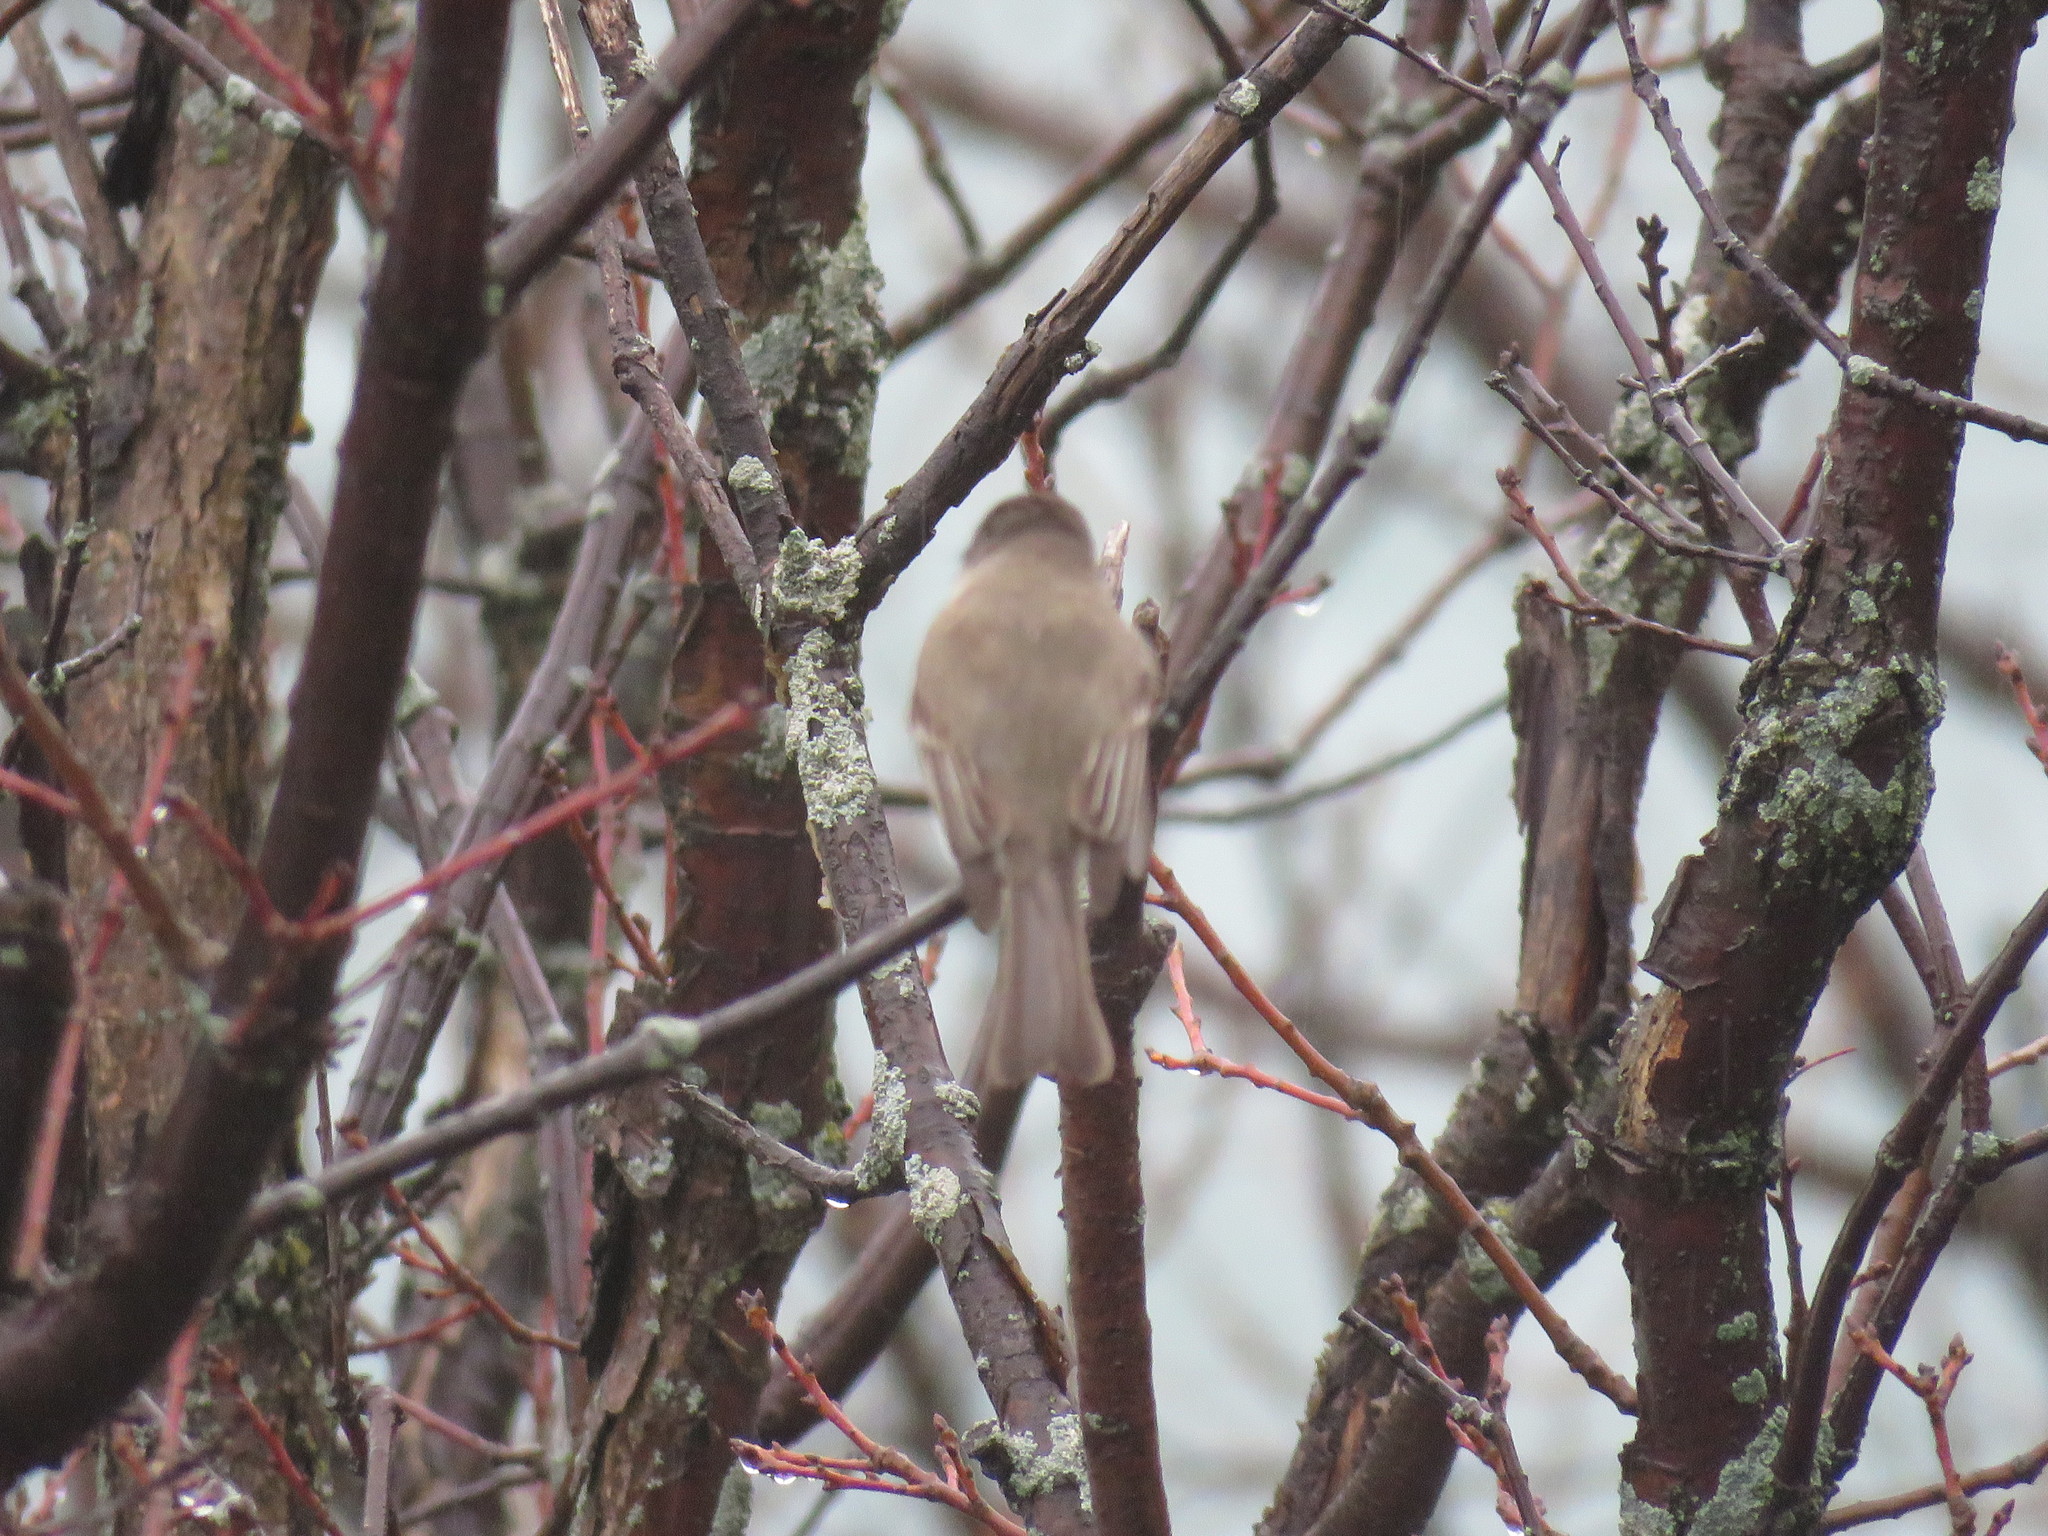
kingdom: Animalia
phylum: Chordata
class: Aves
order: Passeriformes
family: Tyrannidae
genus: Sayornis
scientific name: Sayornis phoebe
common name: Eastern phoebe
